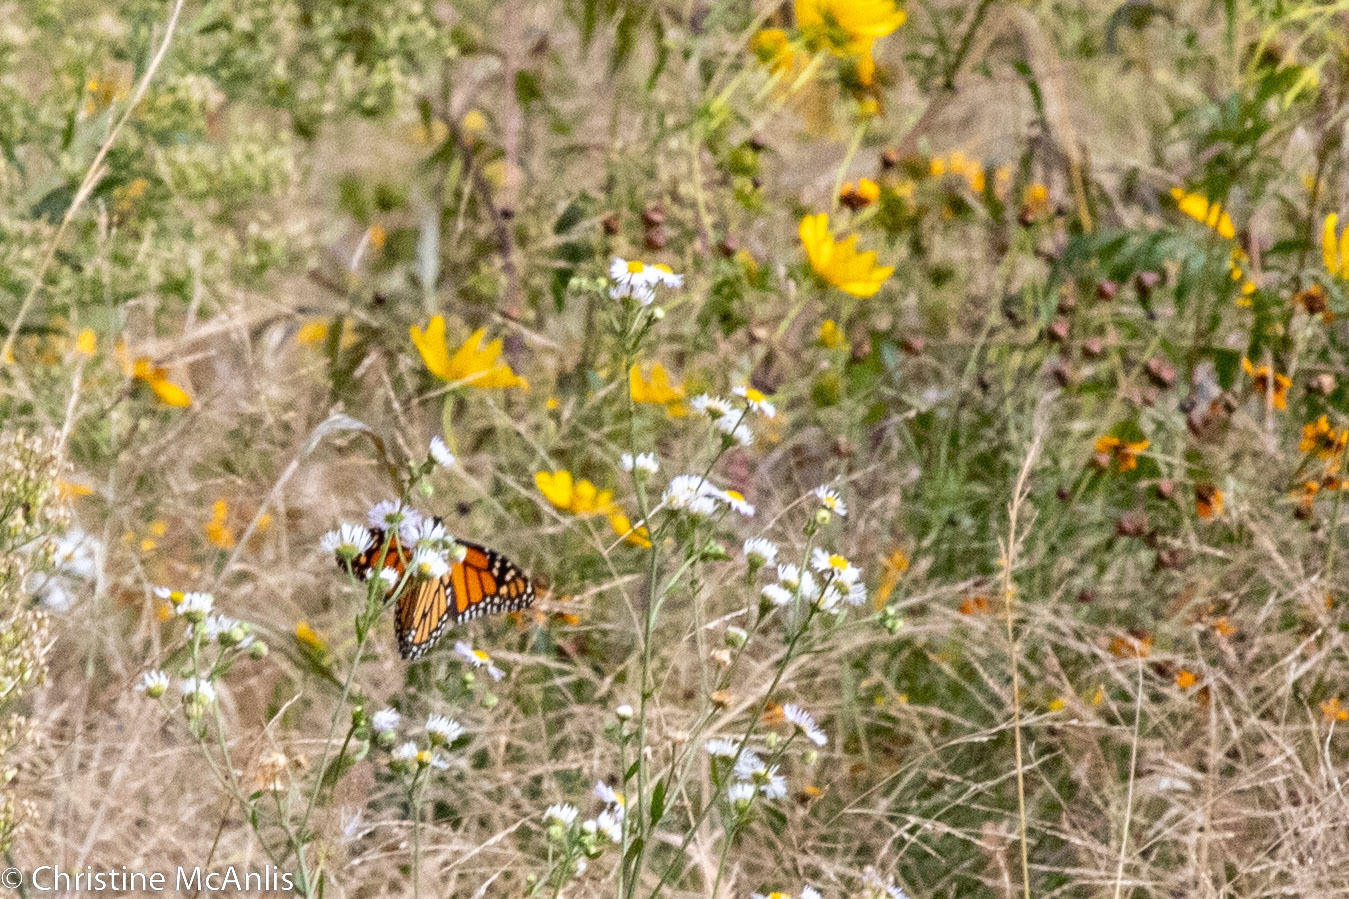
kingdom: Animalia
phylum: Arthropoda
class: Insecta
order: Lepidoptera
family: Nymphalidae
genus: Danaus
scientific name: Danaus plexippus
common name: Monarch
